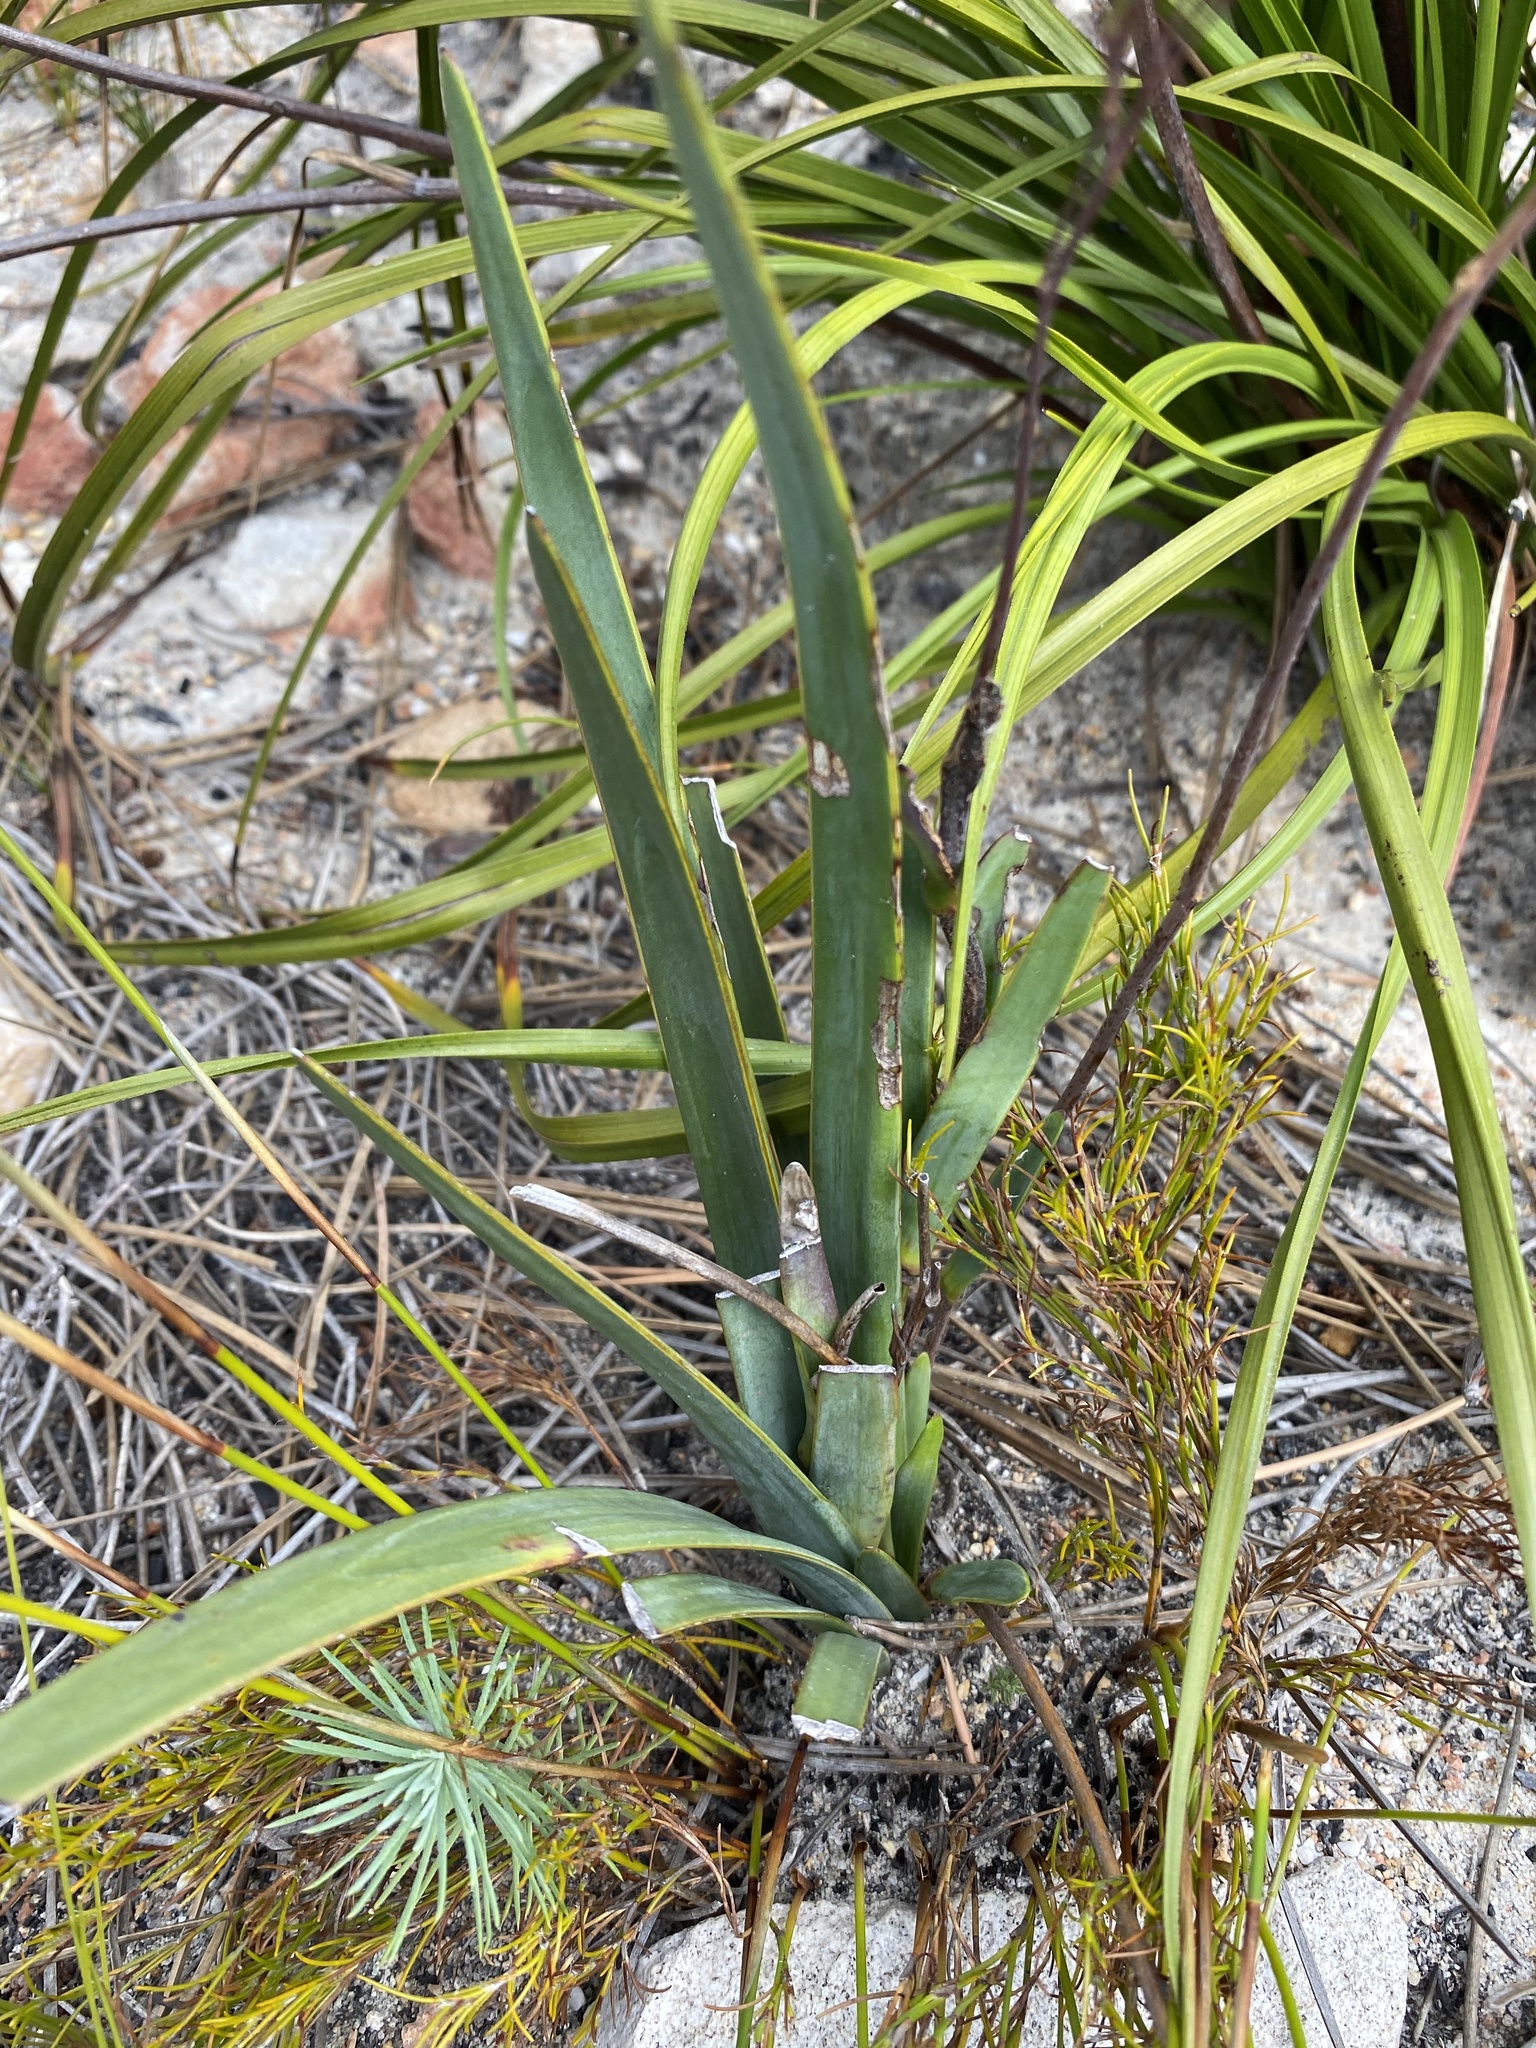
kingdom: Plantae
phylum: Tracheophyta
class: Magnoliopsida
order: Asterales
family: Asteraceae
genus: Corymbium
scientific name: Corymbium glabrum
